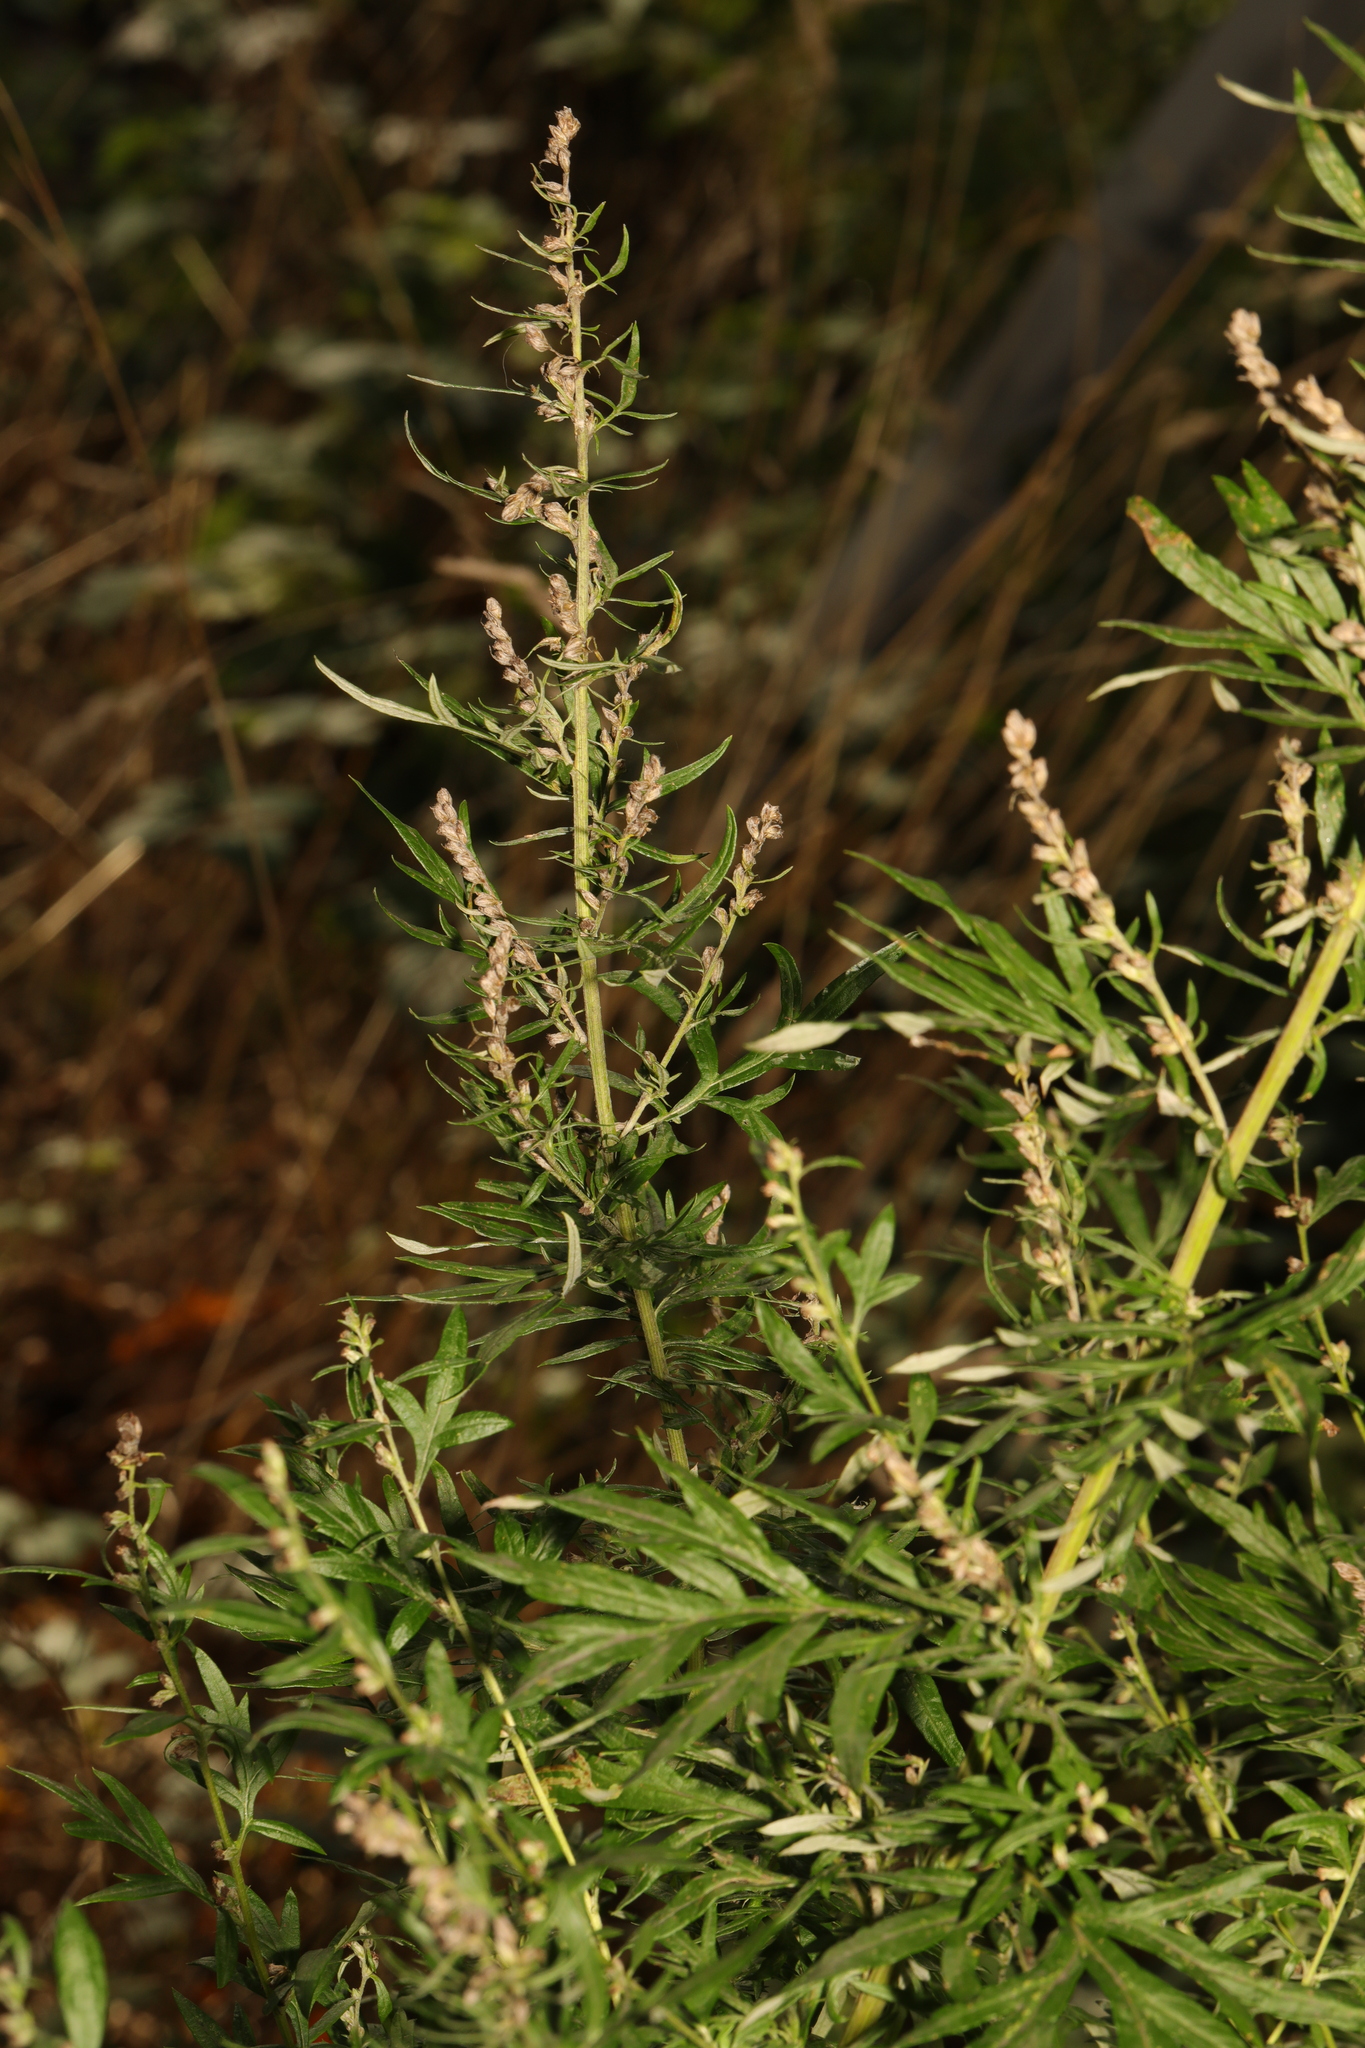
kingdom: Plantae
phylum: Tracheophyta
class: Magnoliopsida
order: Asterales
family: Asteraceae
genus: Artemisia
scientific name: Artemisia vulgaris
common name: Mugwort
